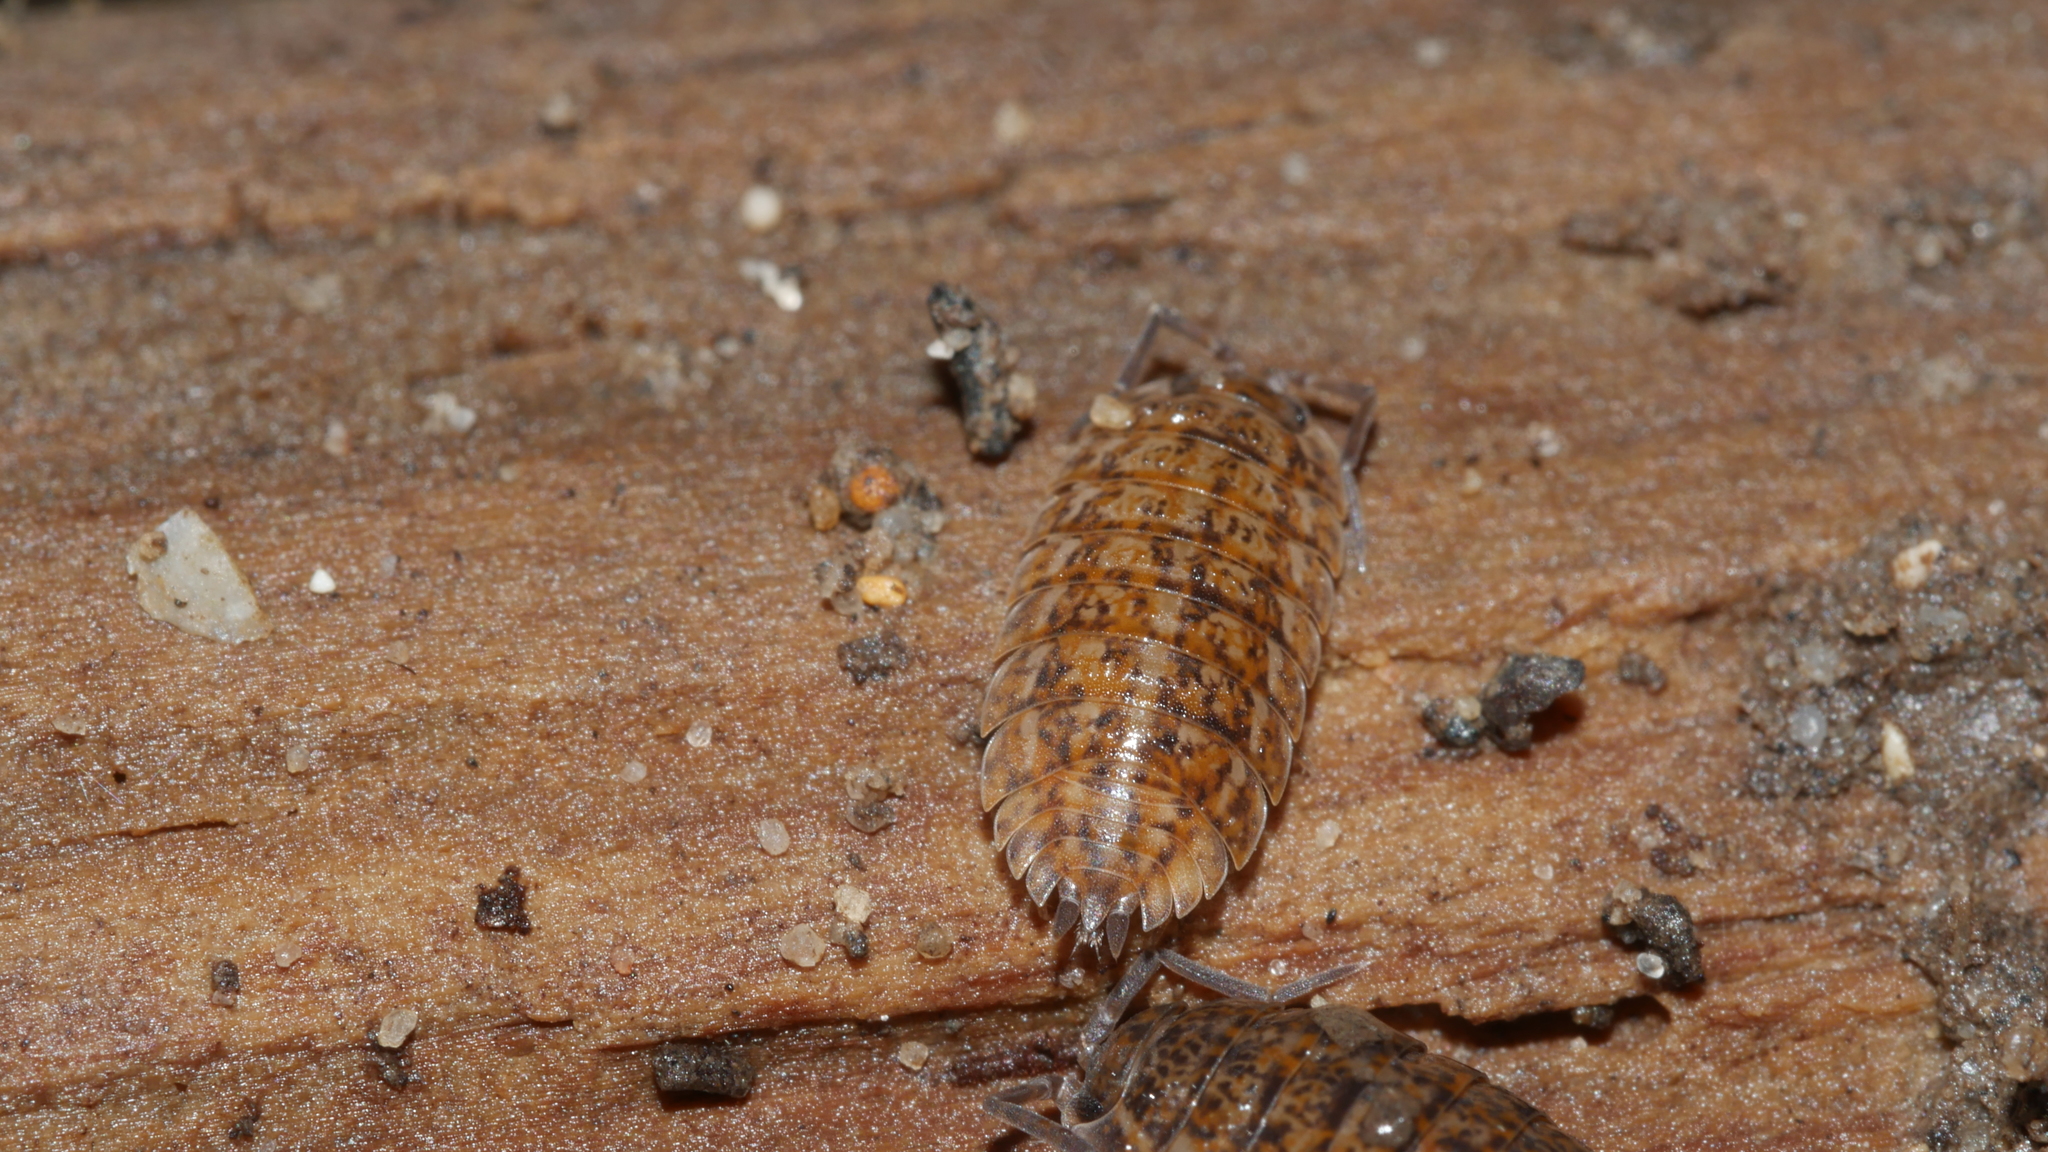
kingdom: Animalia
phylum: Arthropoda
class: Malacostraca
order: Isopoda
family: Trachelipodidae
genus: Trachelipus
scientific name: Trachelipus rathkii
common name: Isopod
